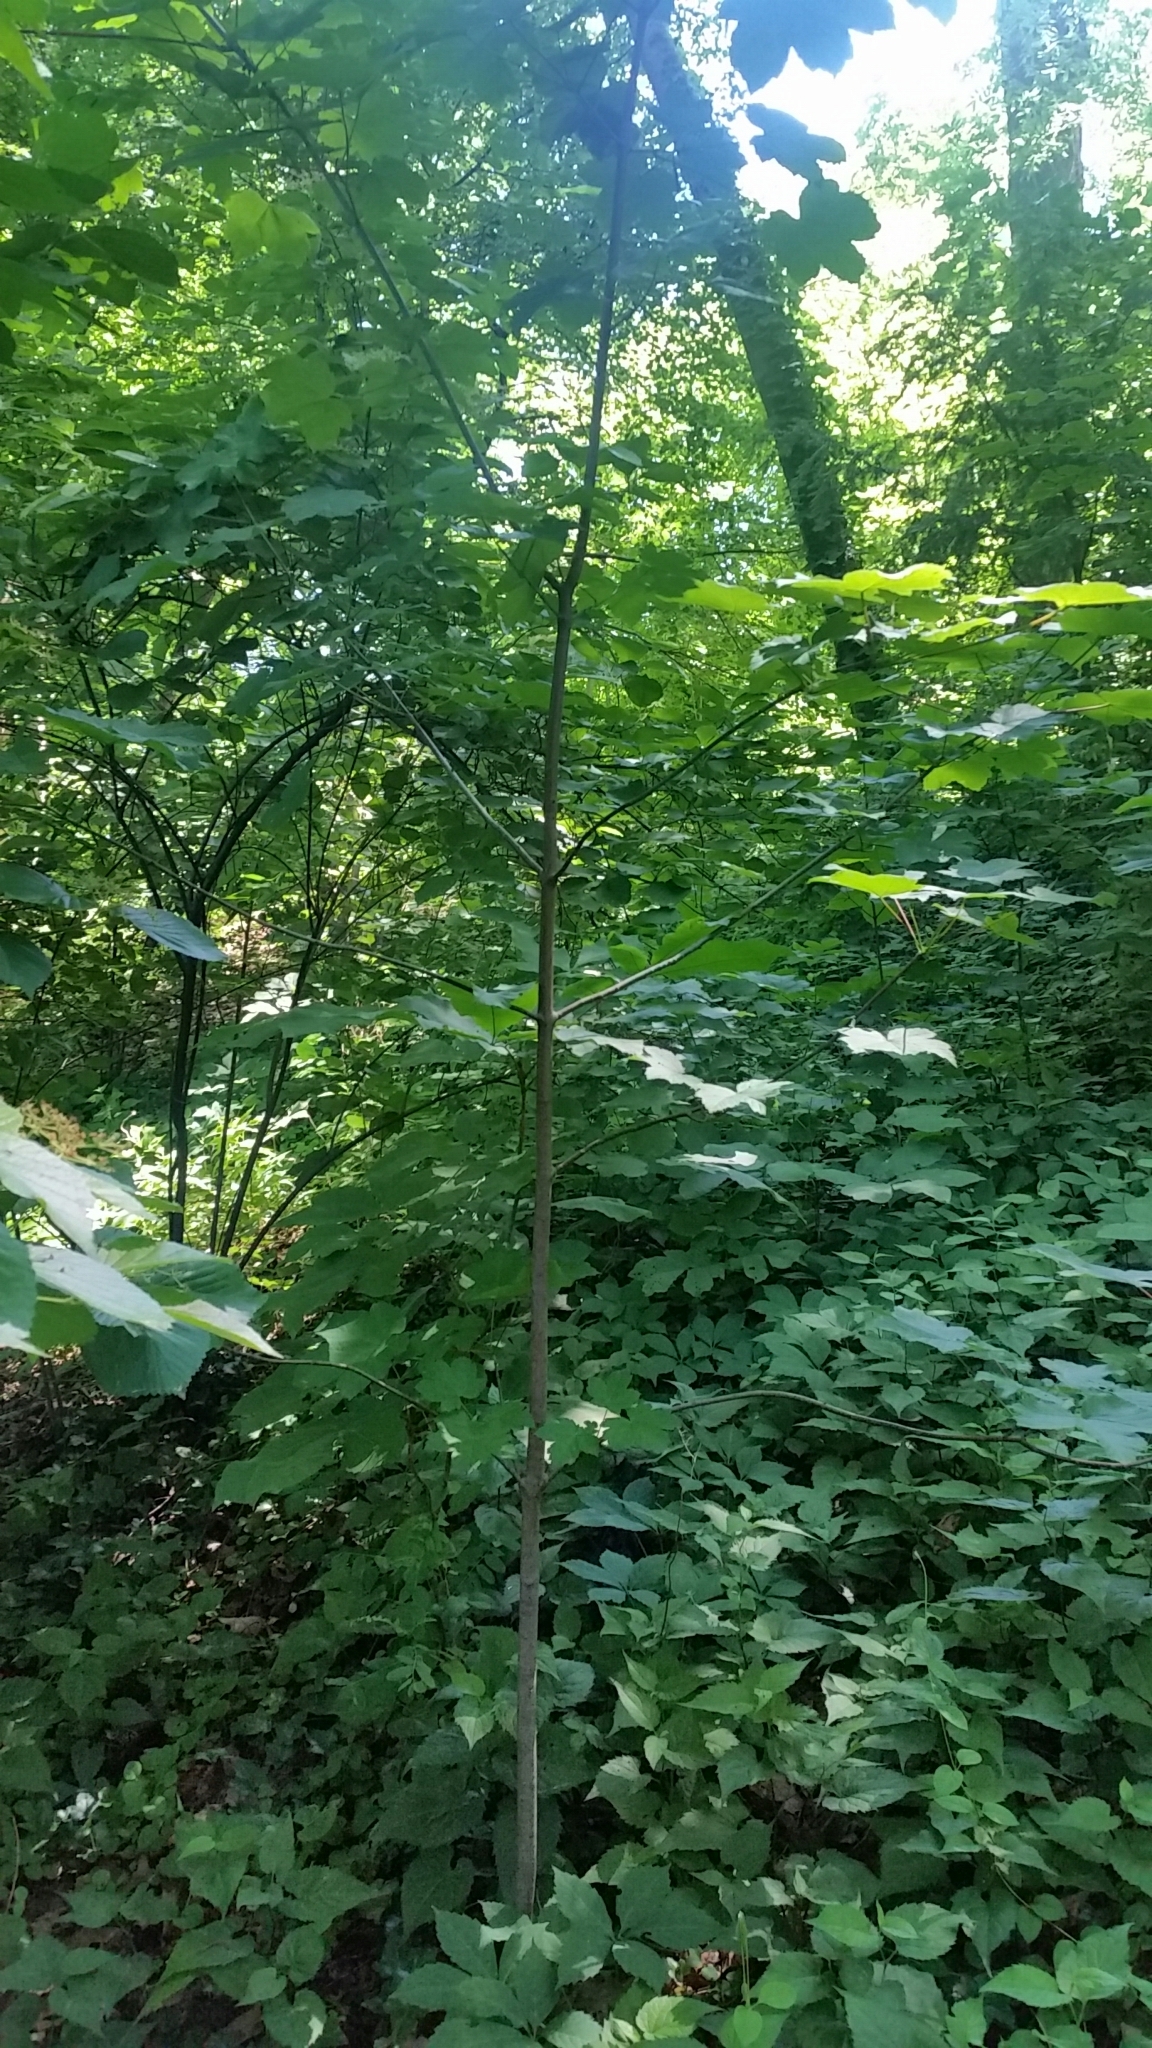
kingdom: Plantae
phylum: Tracheophyta
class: Magnoliopsida
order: Sapindales
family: Sapindaceae
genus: Acer
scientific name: Acer pseudoplatanus
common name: Sycamore
